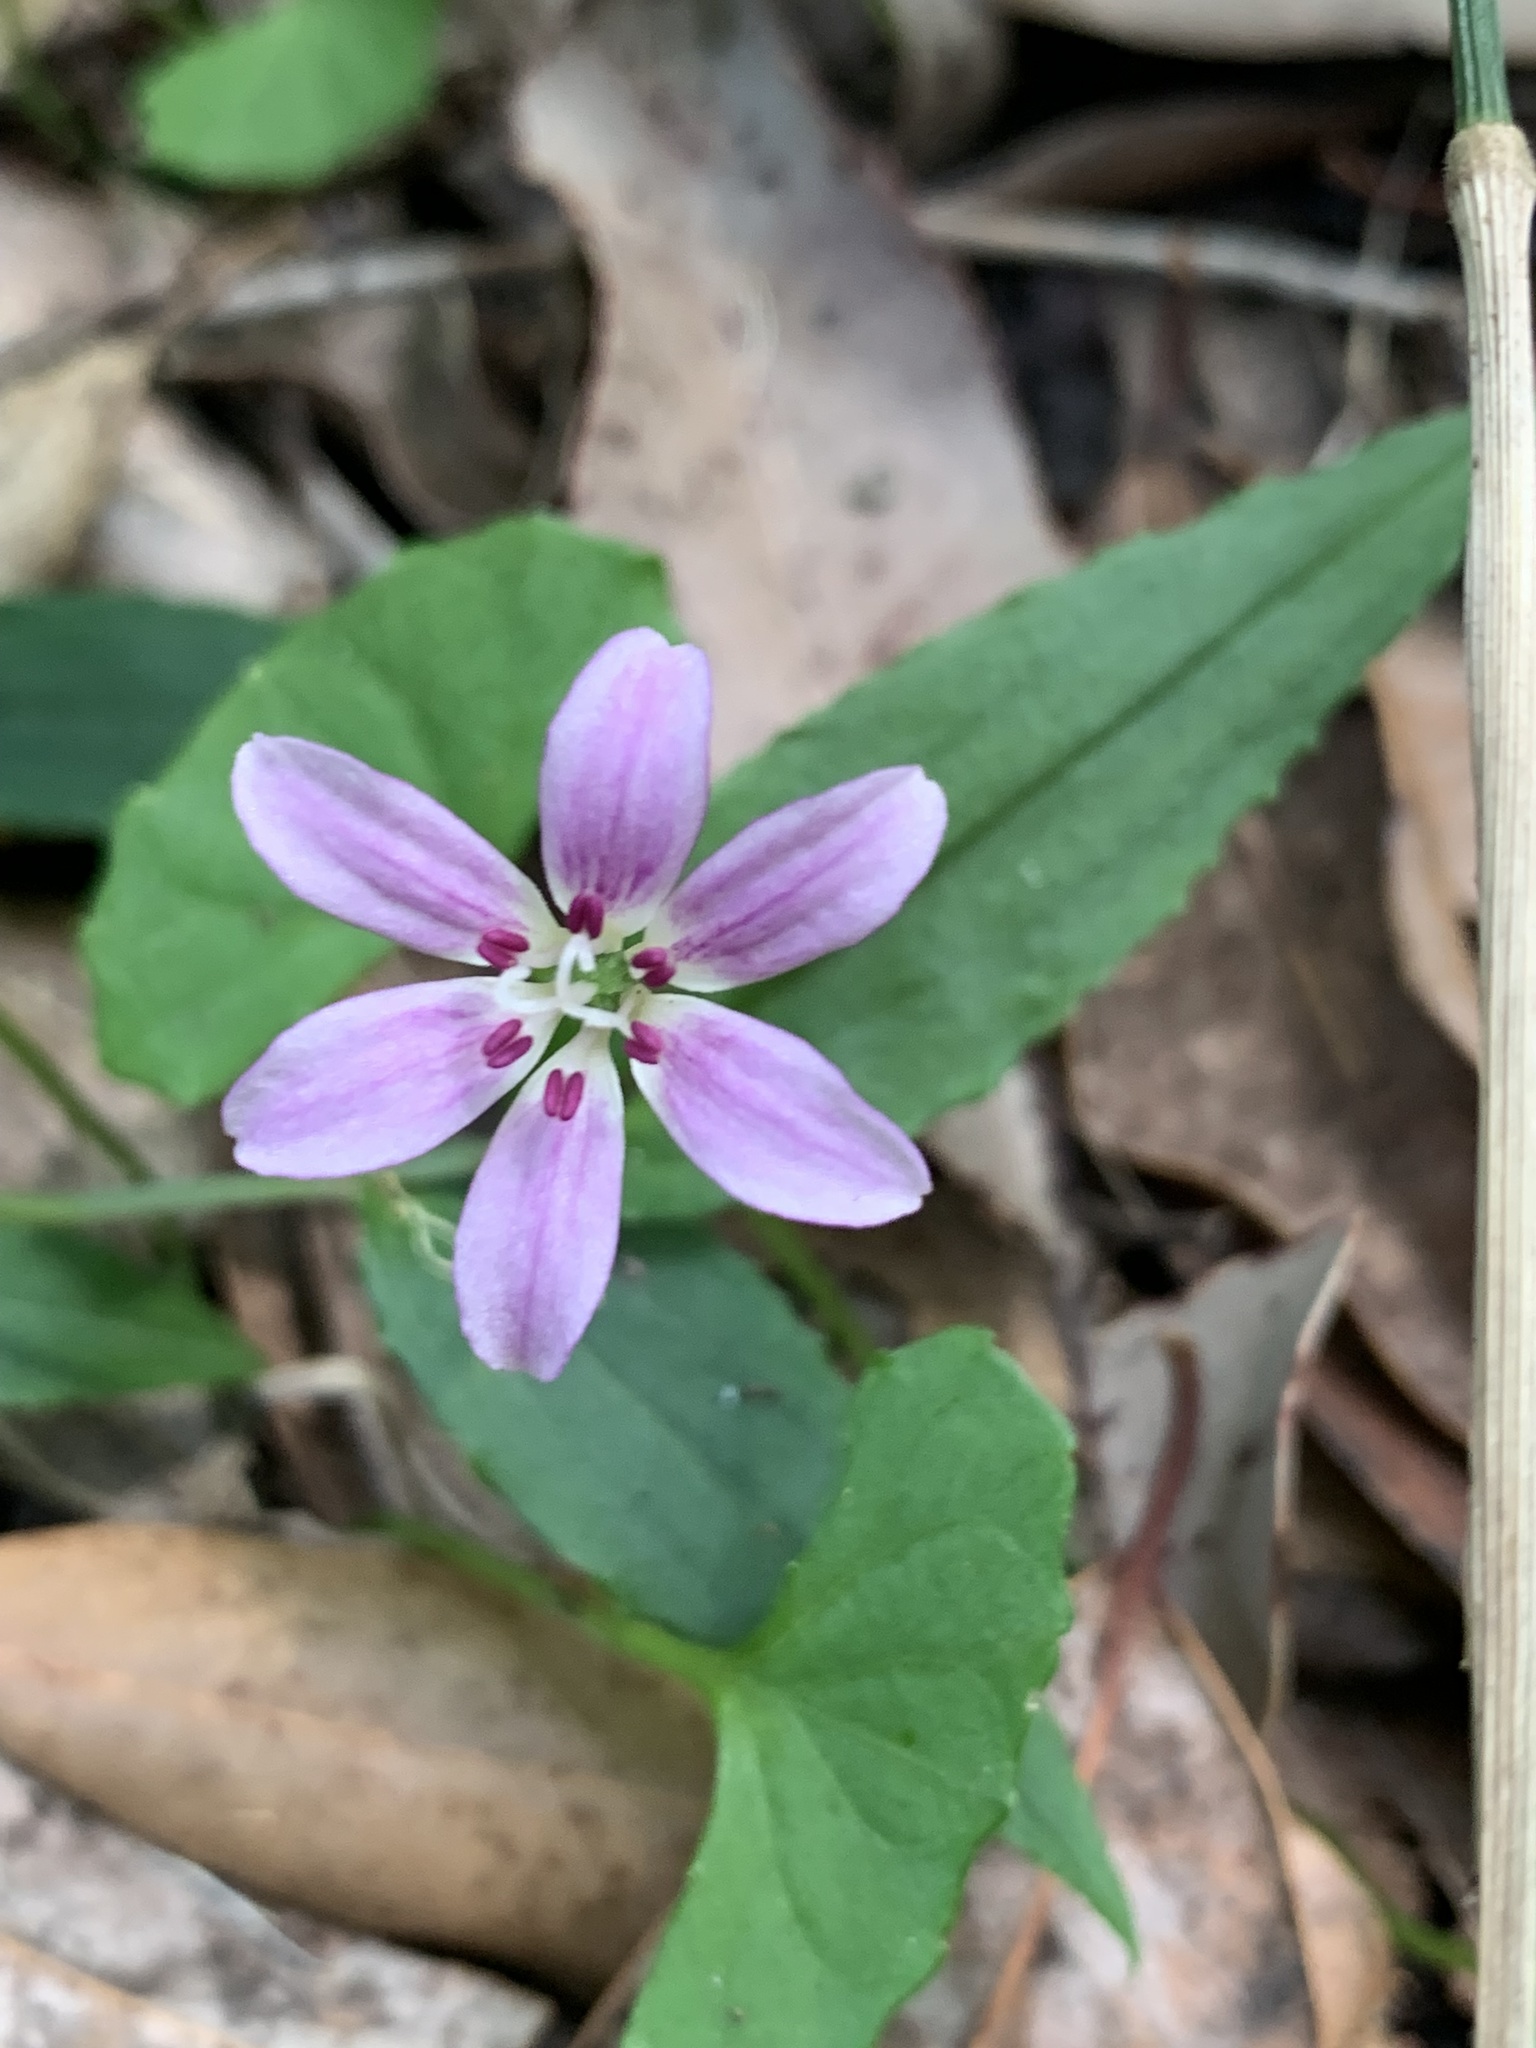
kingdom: Plantae
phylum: Tracheophyta
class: Liliopsida
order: Liliales
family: Colchicaceae
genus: Schelhammera
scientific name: Schelhammera undulata
